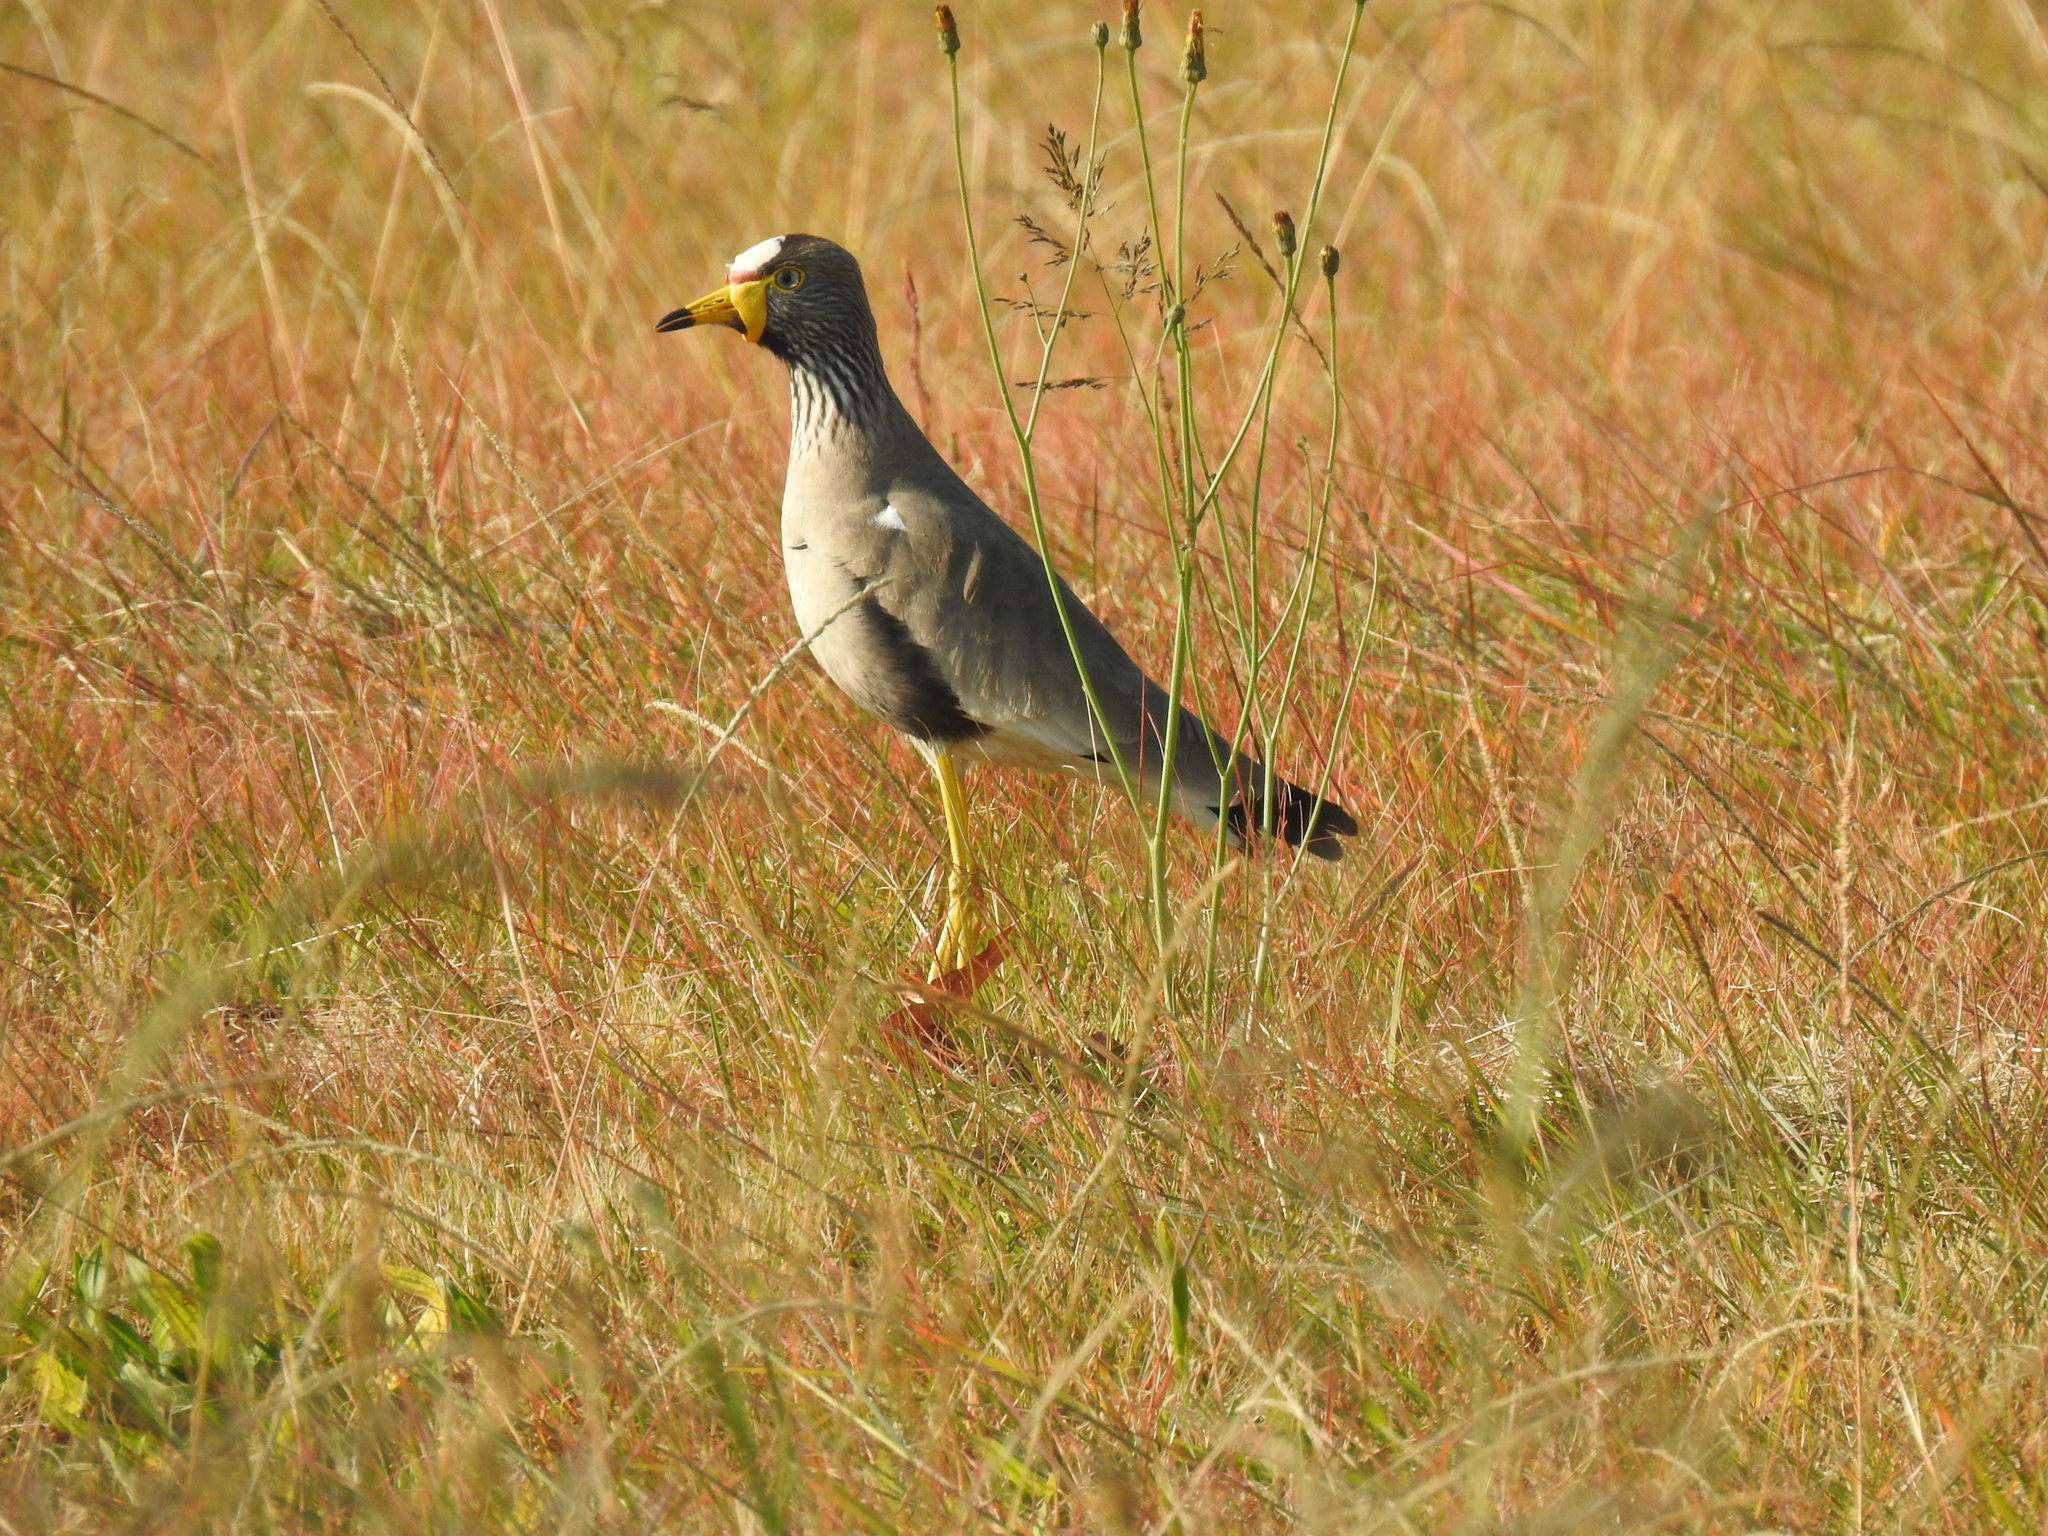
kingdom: Animalia
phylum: Chordata
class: Aves
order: Charadriiformes
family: Charadriidae
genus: Vanellus
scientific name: Vanellus senegallus
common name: African wattled lapwing
